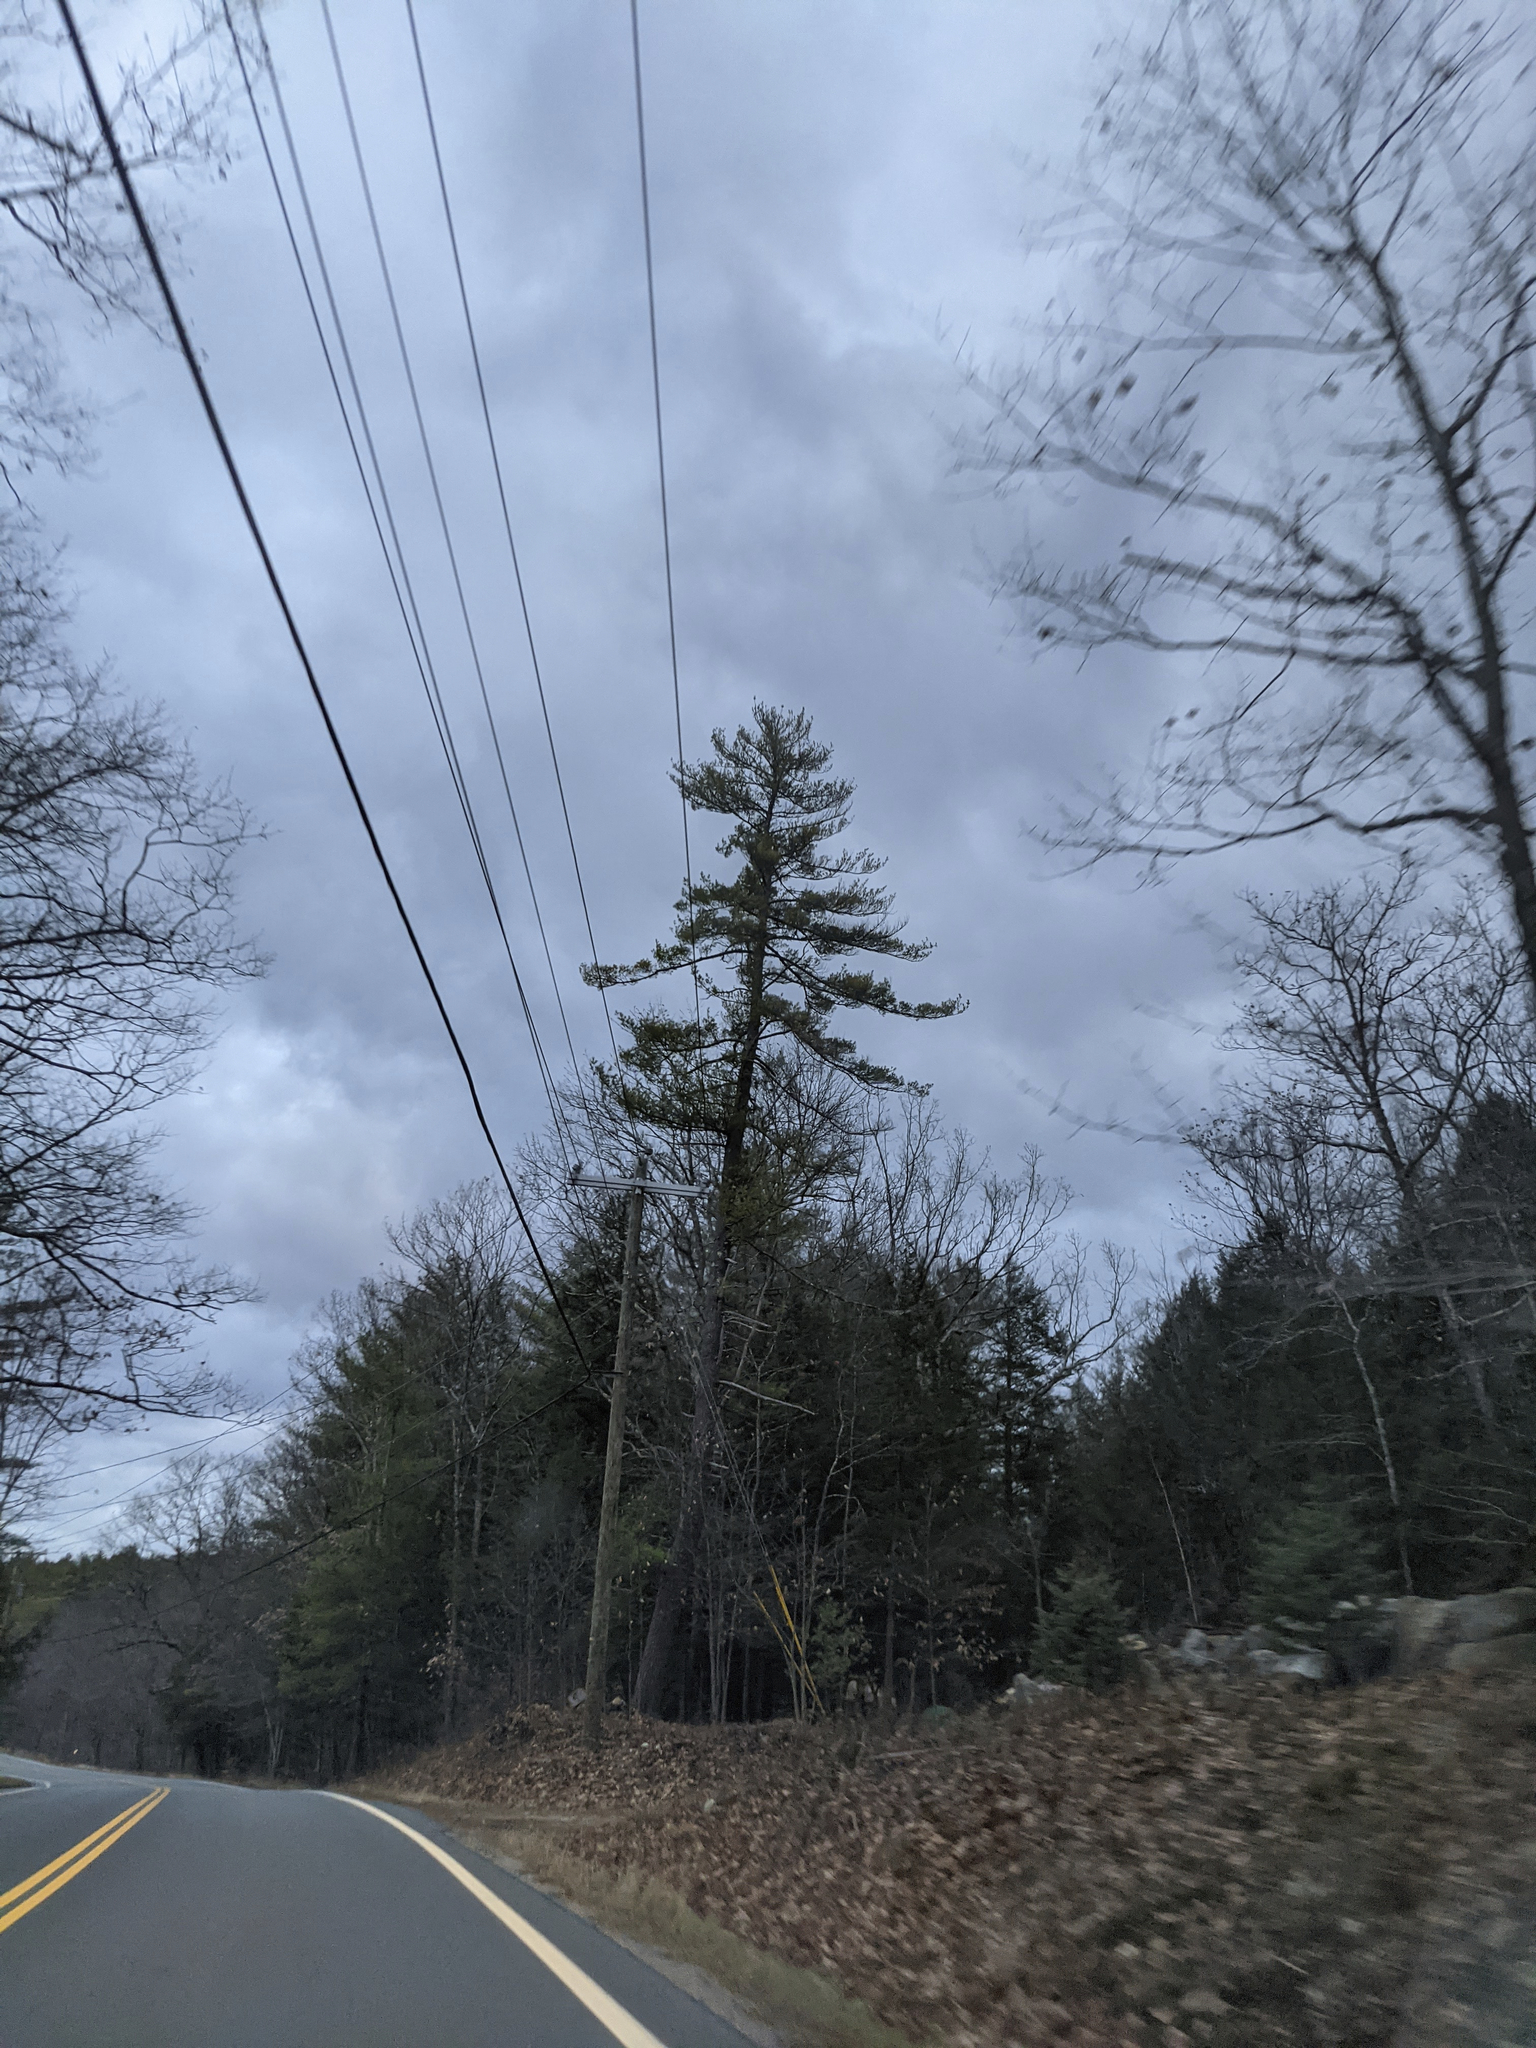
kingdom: Plantae
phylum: Tracheophyta
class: Pinopsida
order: Pinales
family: Pinaceae
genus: Pinus
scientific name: Pinus strobus
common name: Weymouth pine
